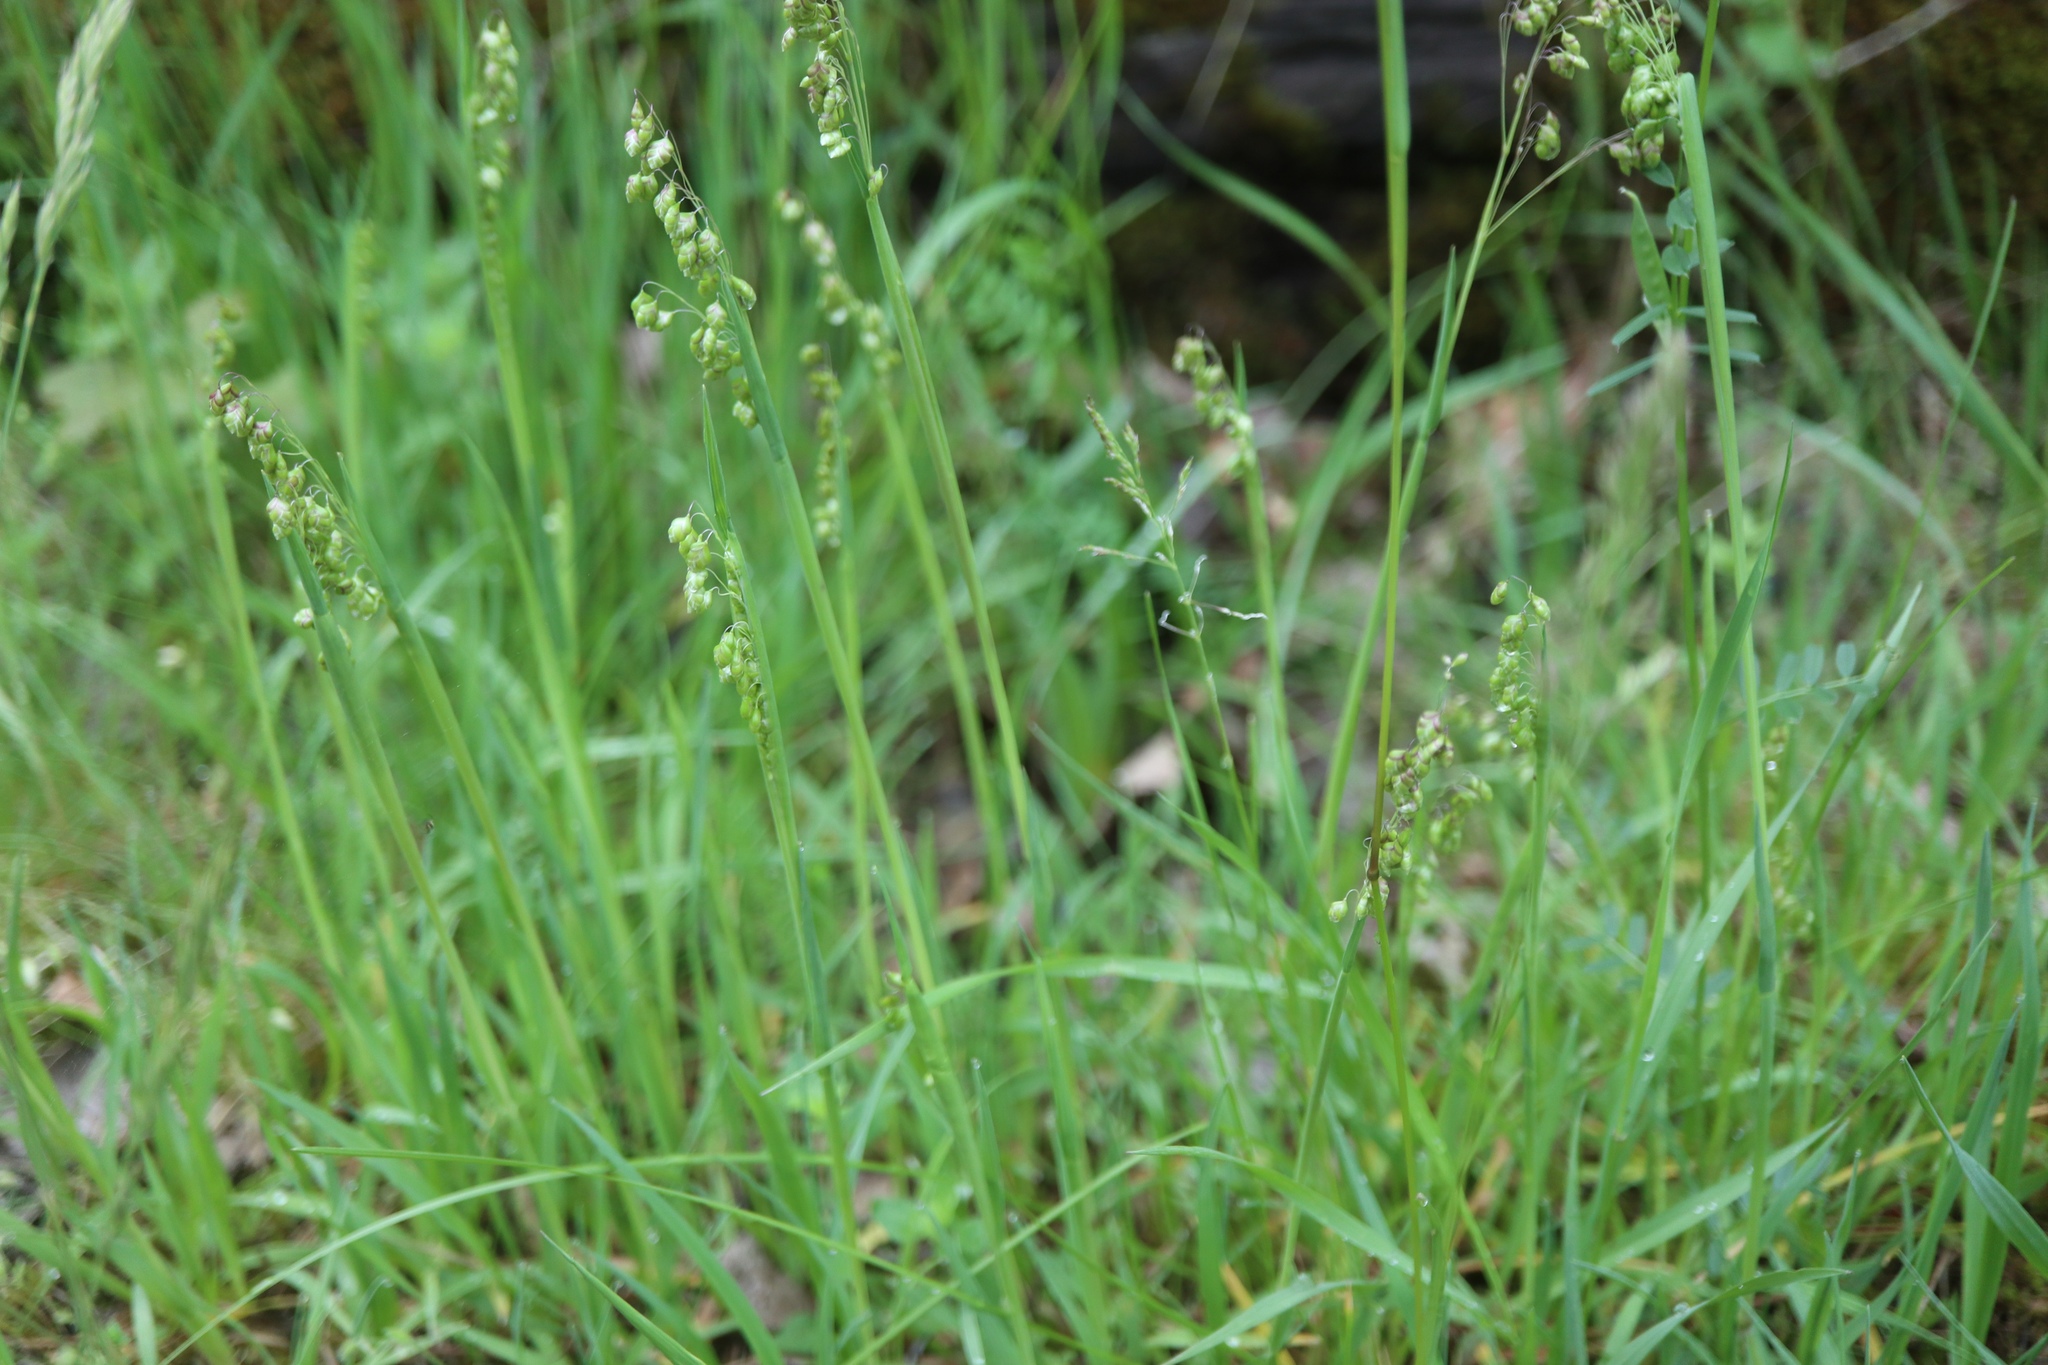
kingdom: Plantae
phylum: Tracheophyta
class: Liliopsida
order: Poales
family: Poaceae
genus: Briza
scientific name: Briza media
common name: Quaking grass
